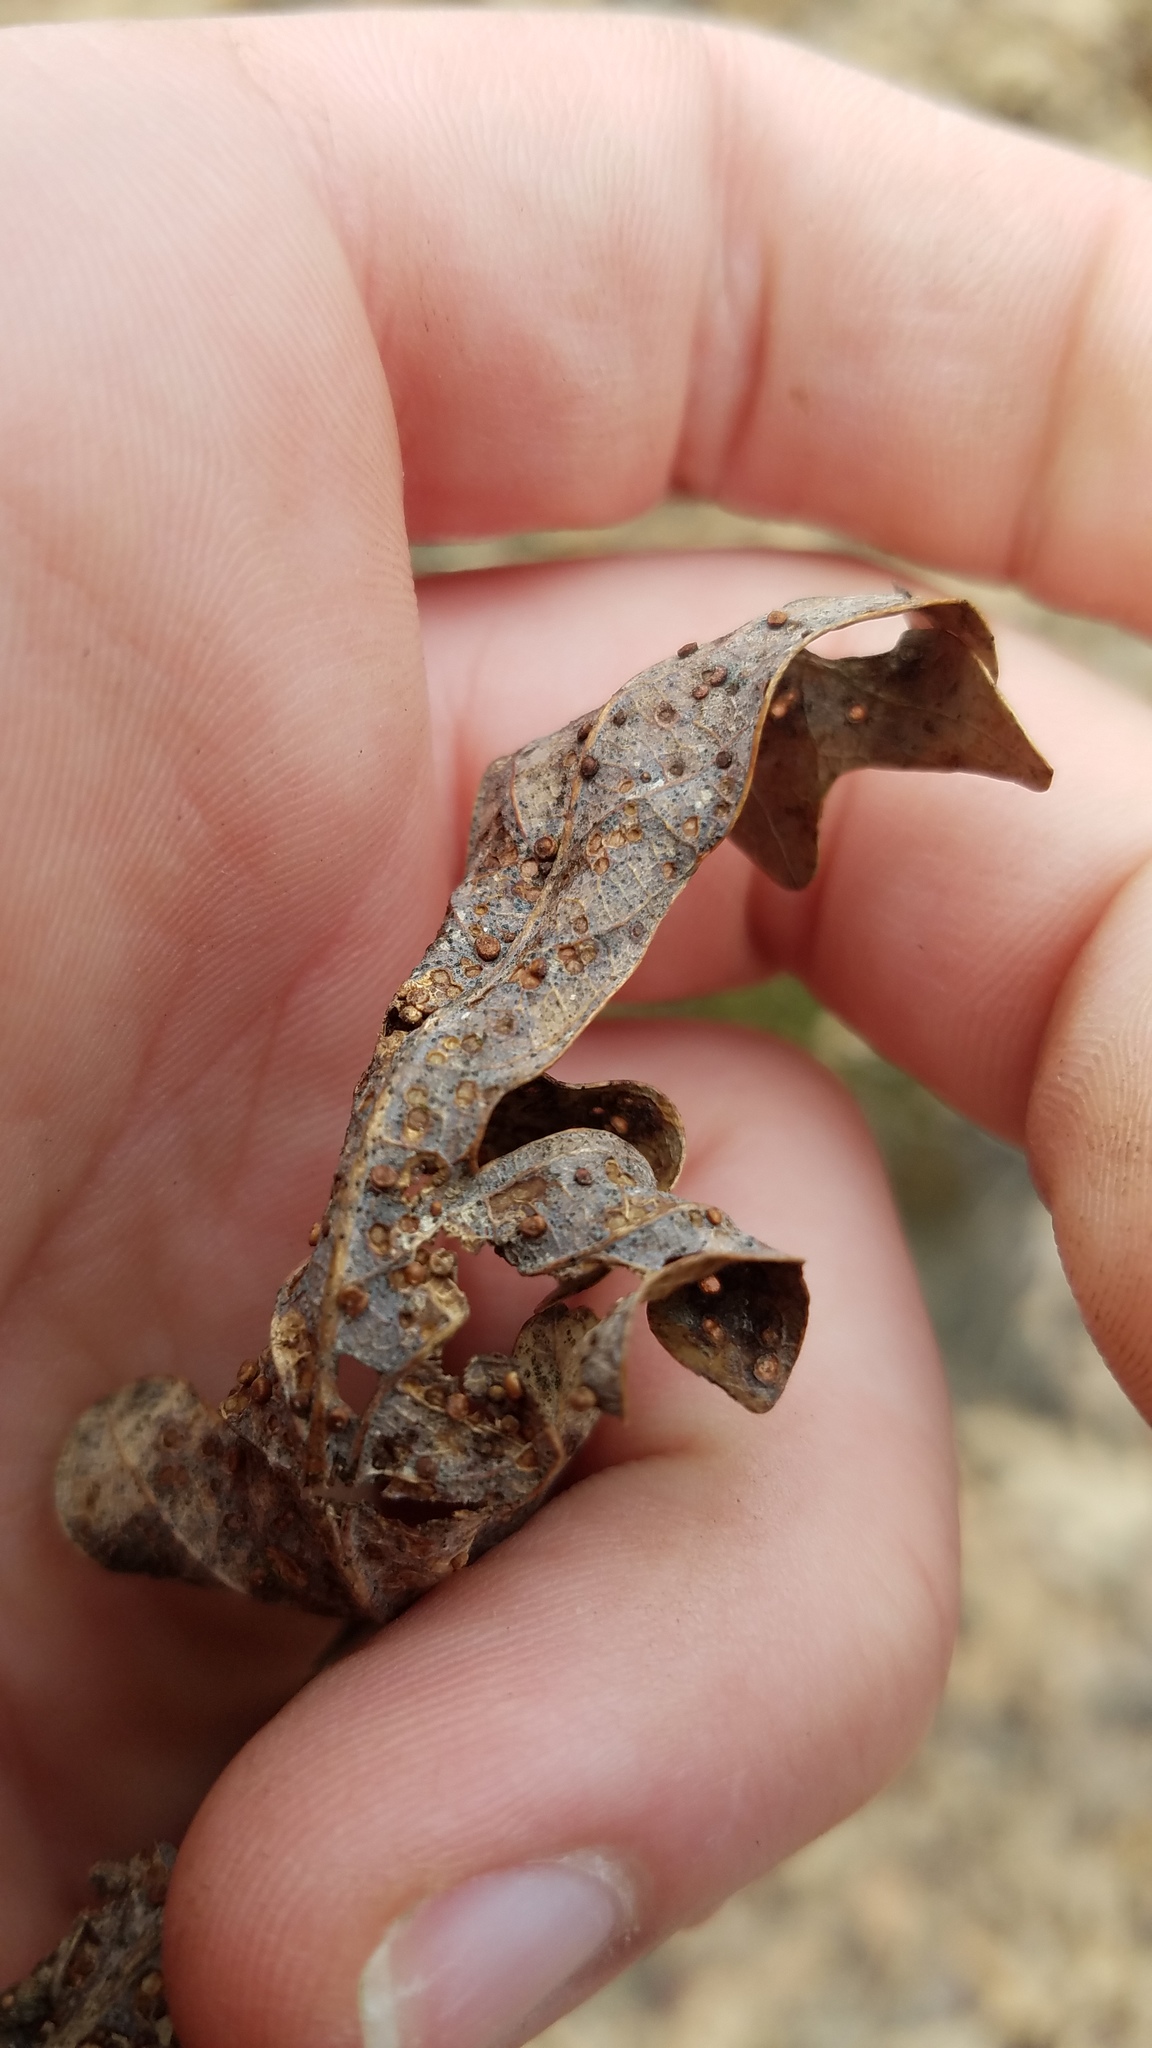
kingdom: Animalia
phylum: Arthropoda
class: Insecta
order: Hymenoptera
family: Cynipidae
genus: Neuroterus
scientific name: Neuroterus
